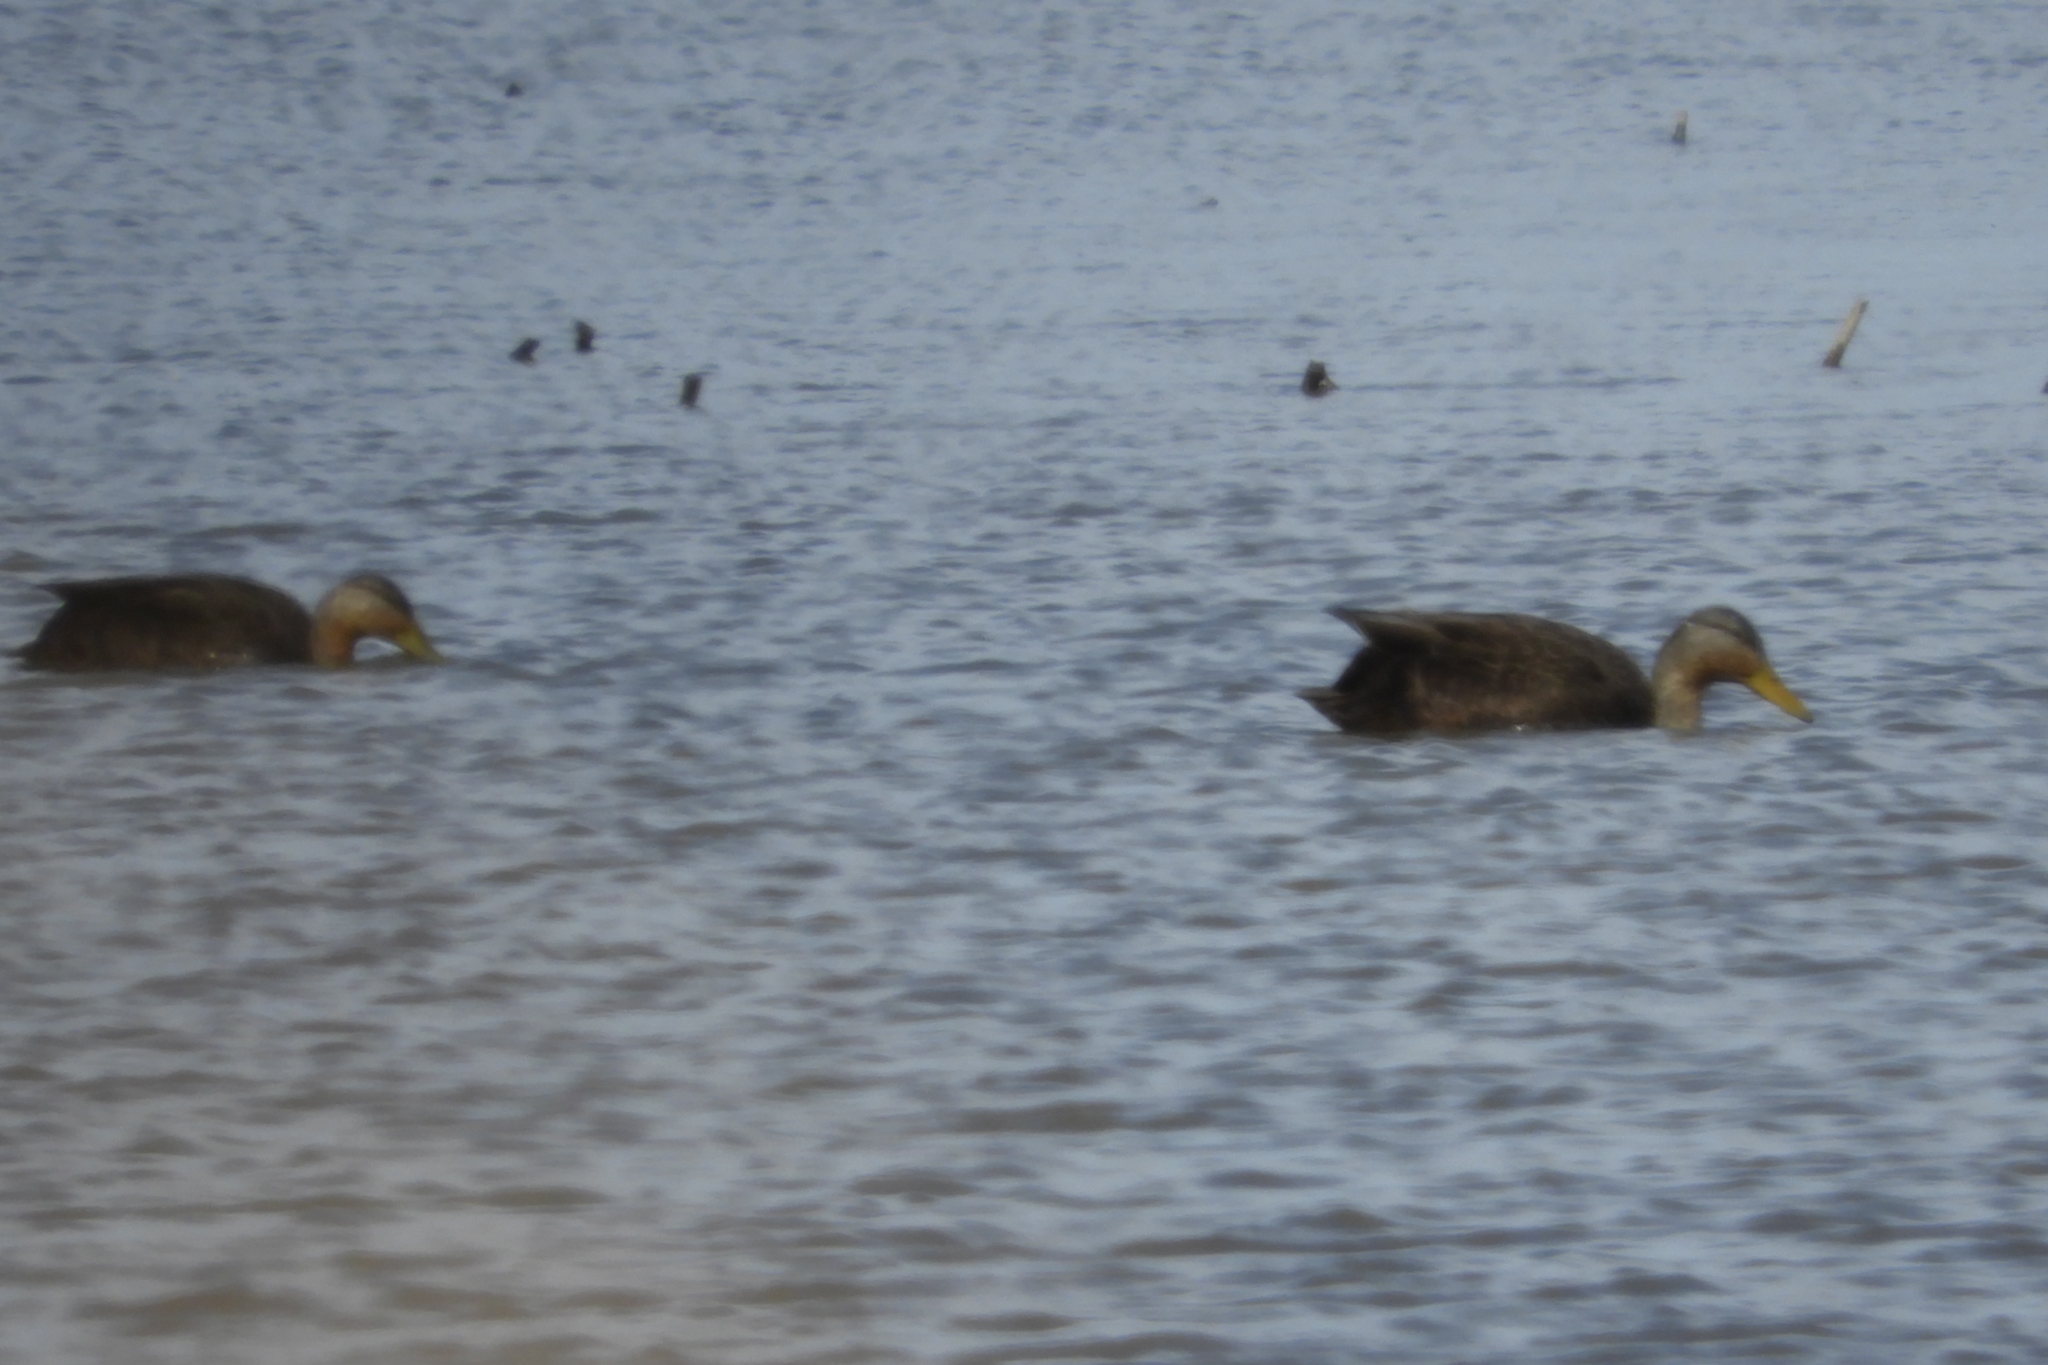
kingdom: Animalia
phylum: Chordata
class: Aves
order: Anseriformes
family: Anatidae
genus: Anas
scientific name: Anas rubripes
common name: American black duck
